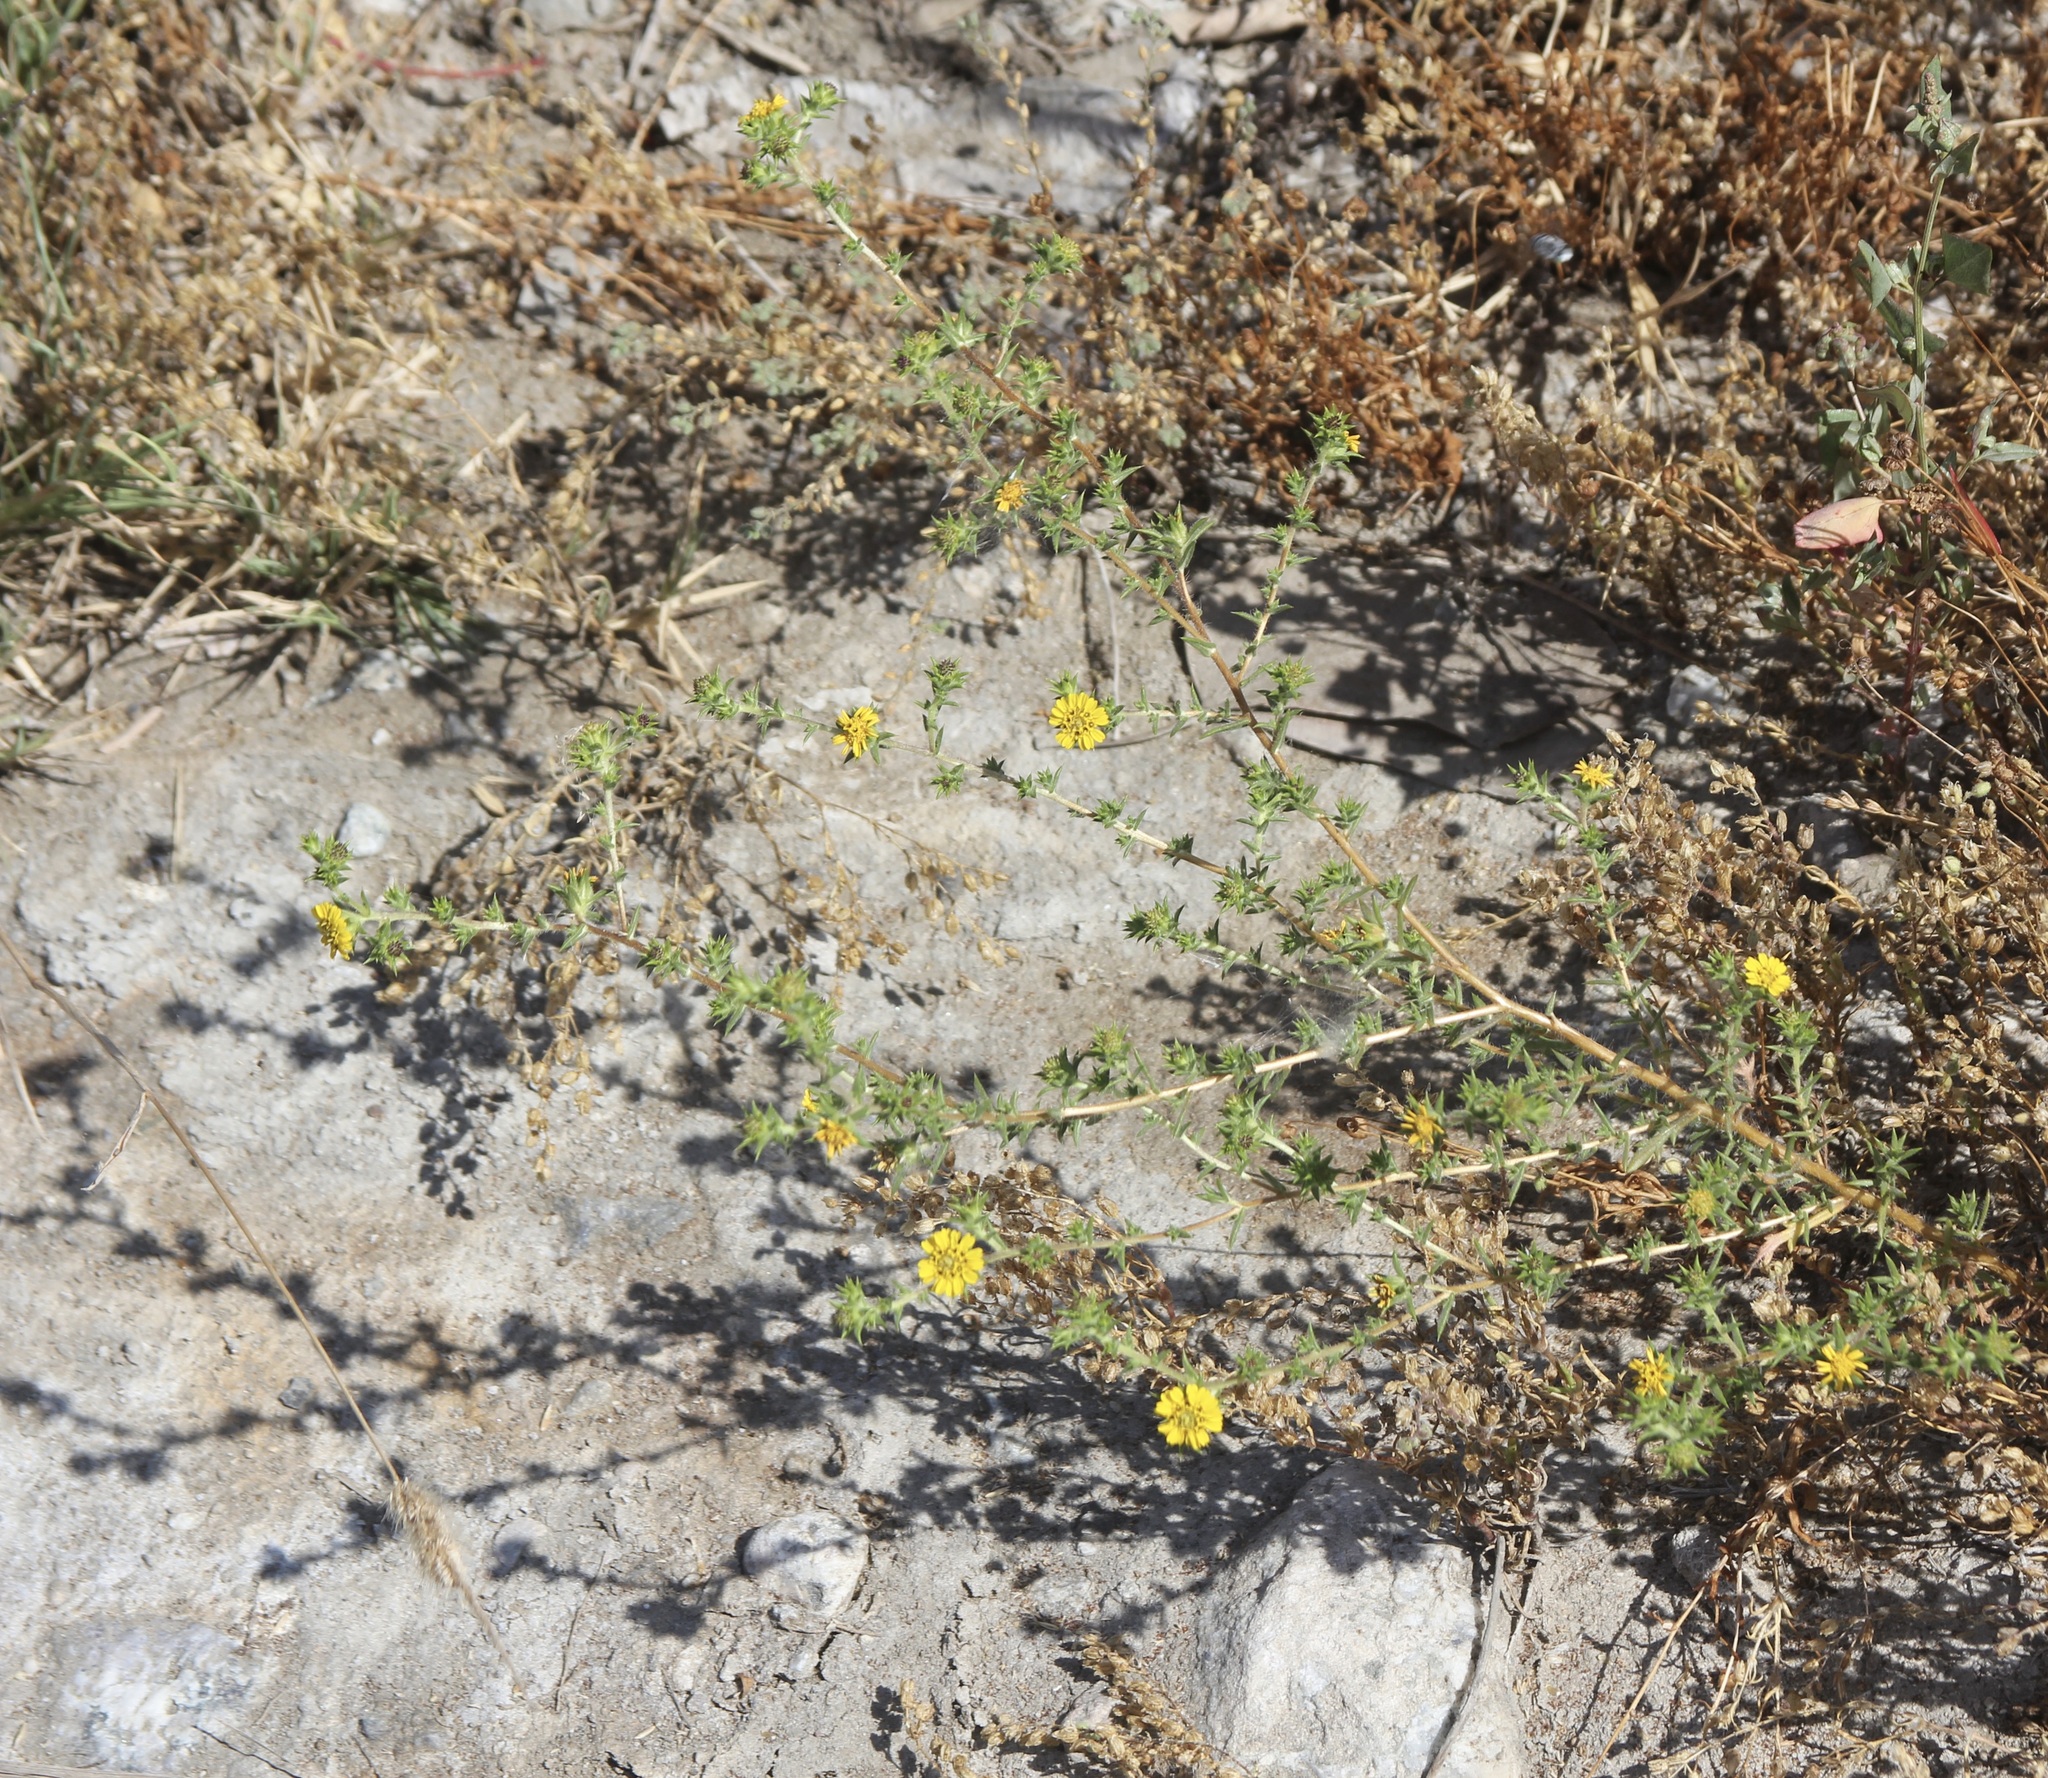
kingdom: Plantae
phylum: Tracheophyta
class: Magnoliopsida
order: Asterales
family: Asteraceae
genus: Centromadia
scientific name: Centromadia parryi
